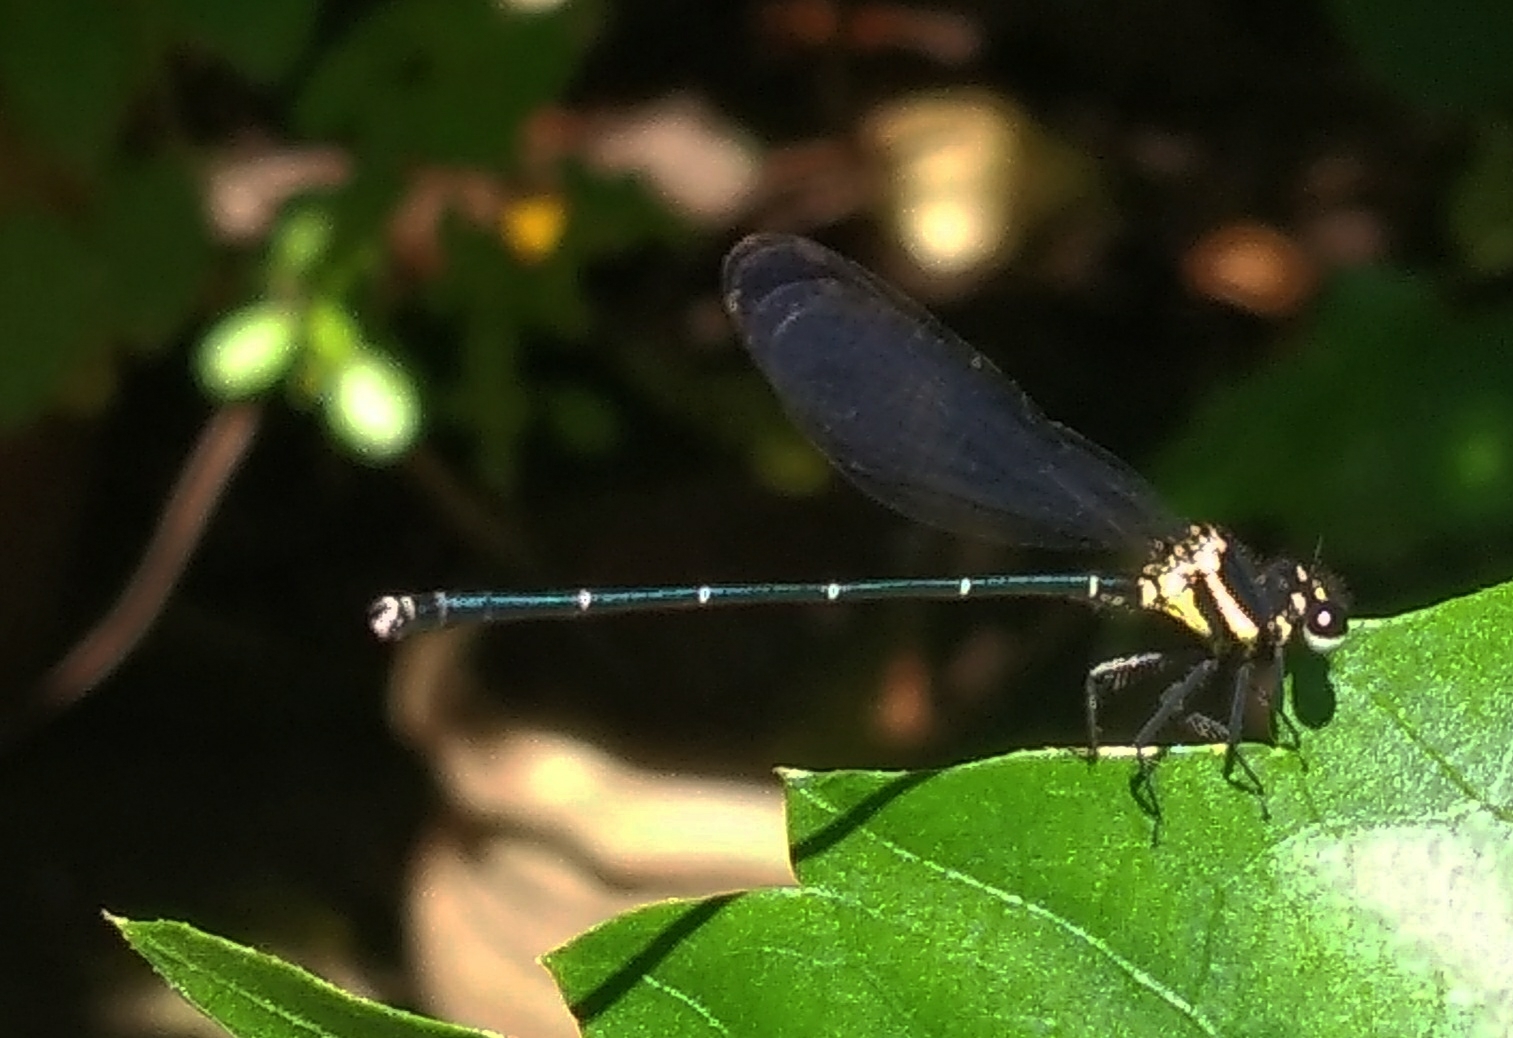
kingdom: Animalia
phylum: Arthropoda
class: Insecta
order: Odonata
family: Platycnemididae
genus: Onychargia
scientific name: Onychargia atrocyana
